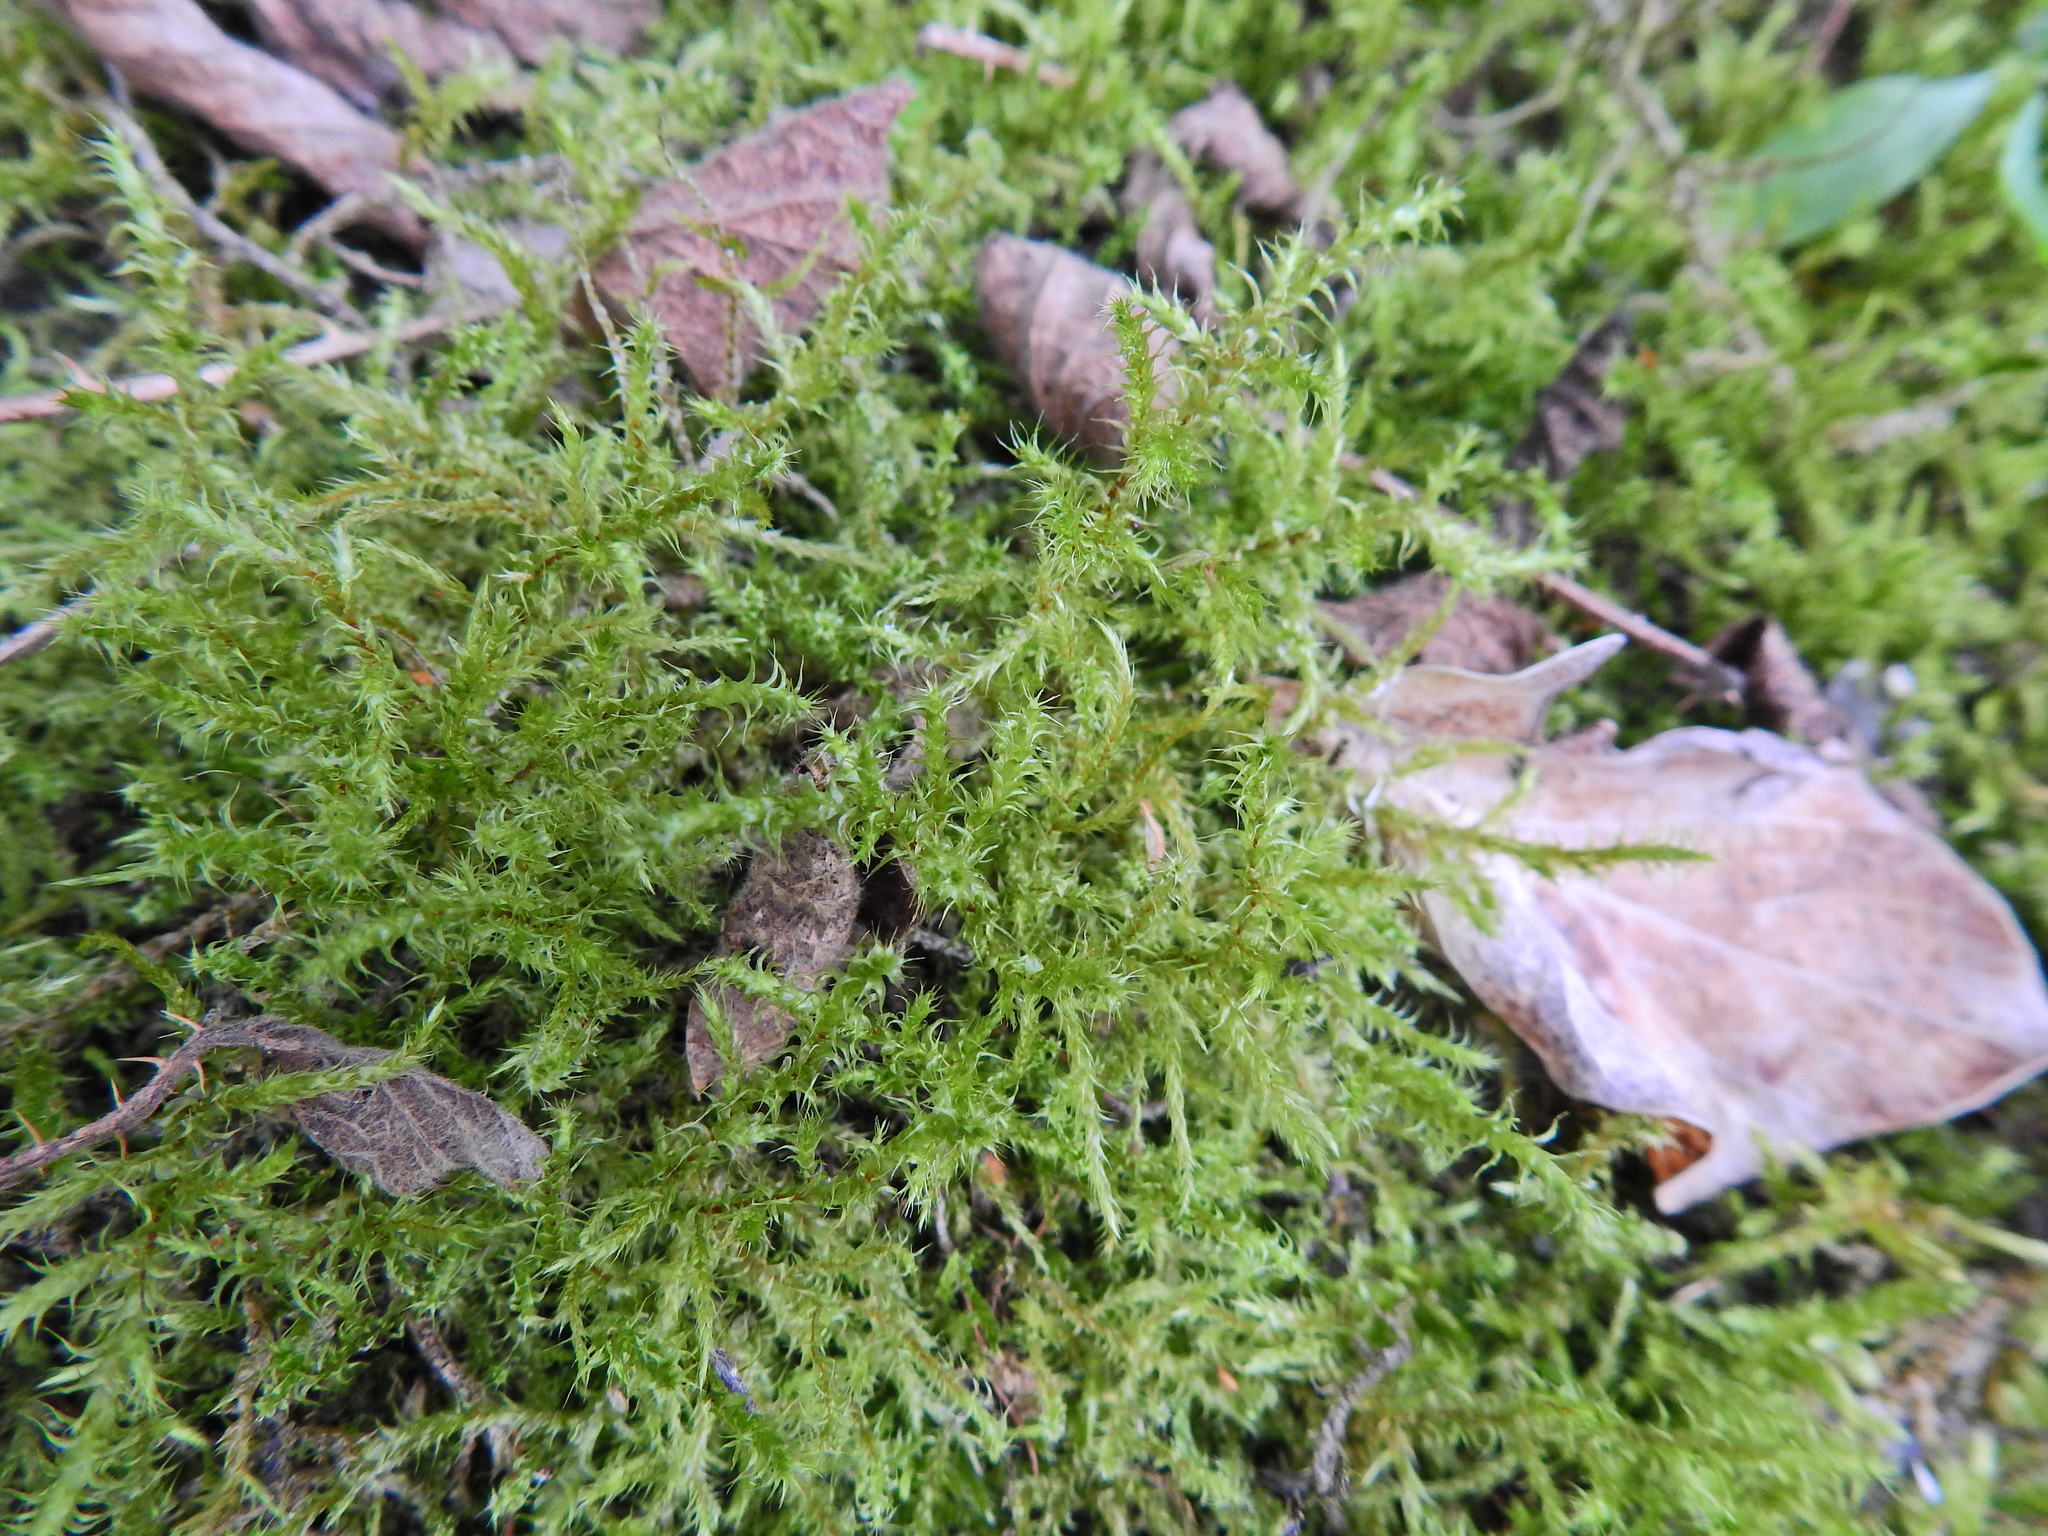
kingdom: Plantae
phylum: Bryophyta
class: Bryopsida
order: Hypnales
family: Brachytheciaceae
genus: Kindbergia
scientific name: Kindbergia praelonga
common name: Slender beaked moss
